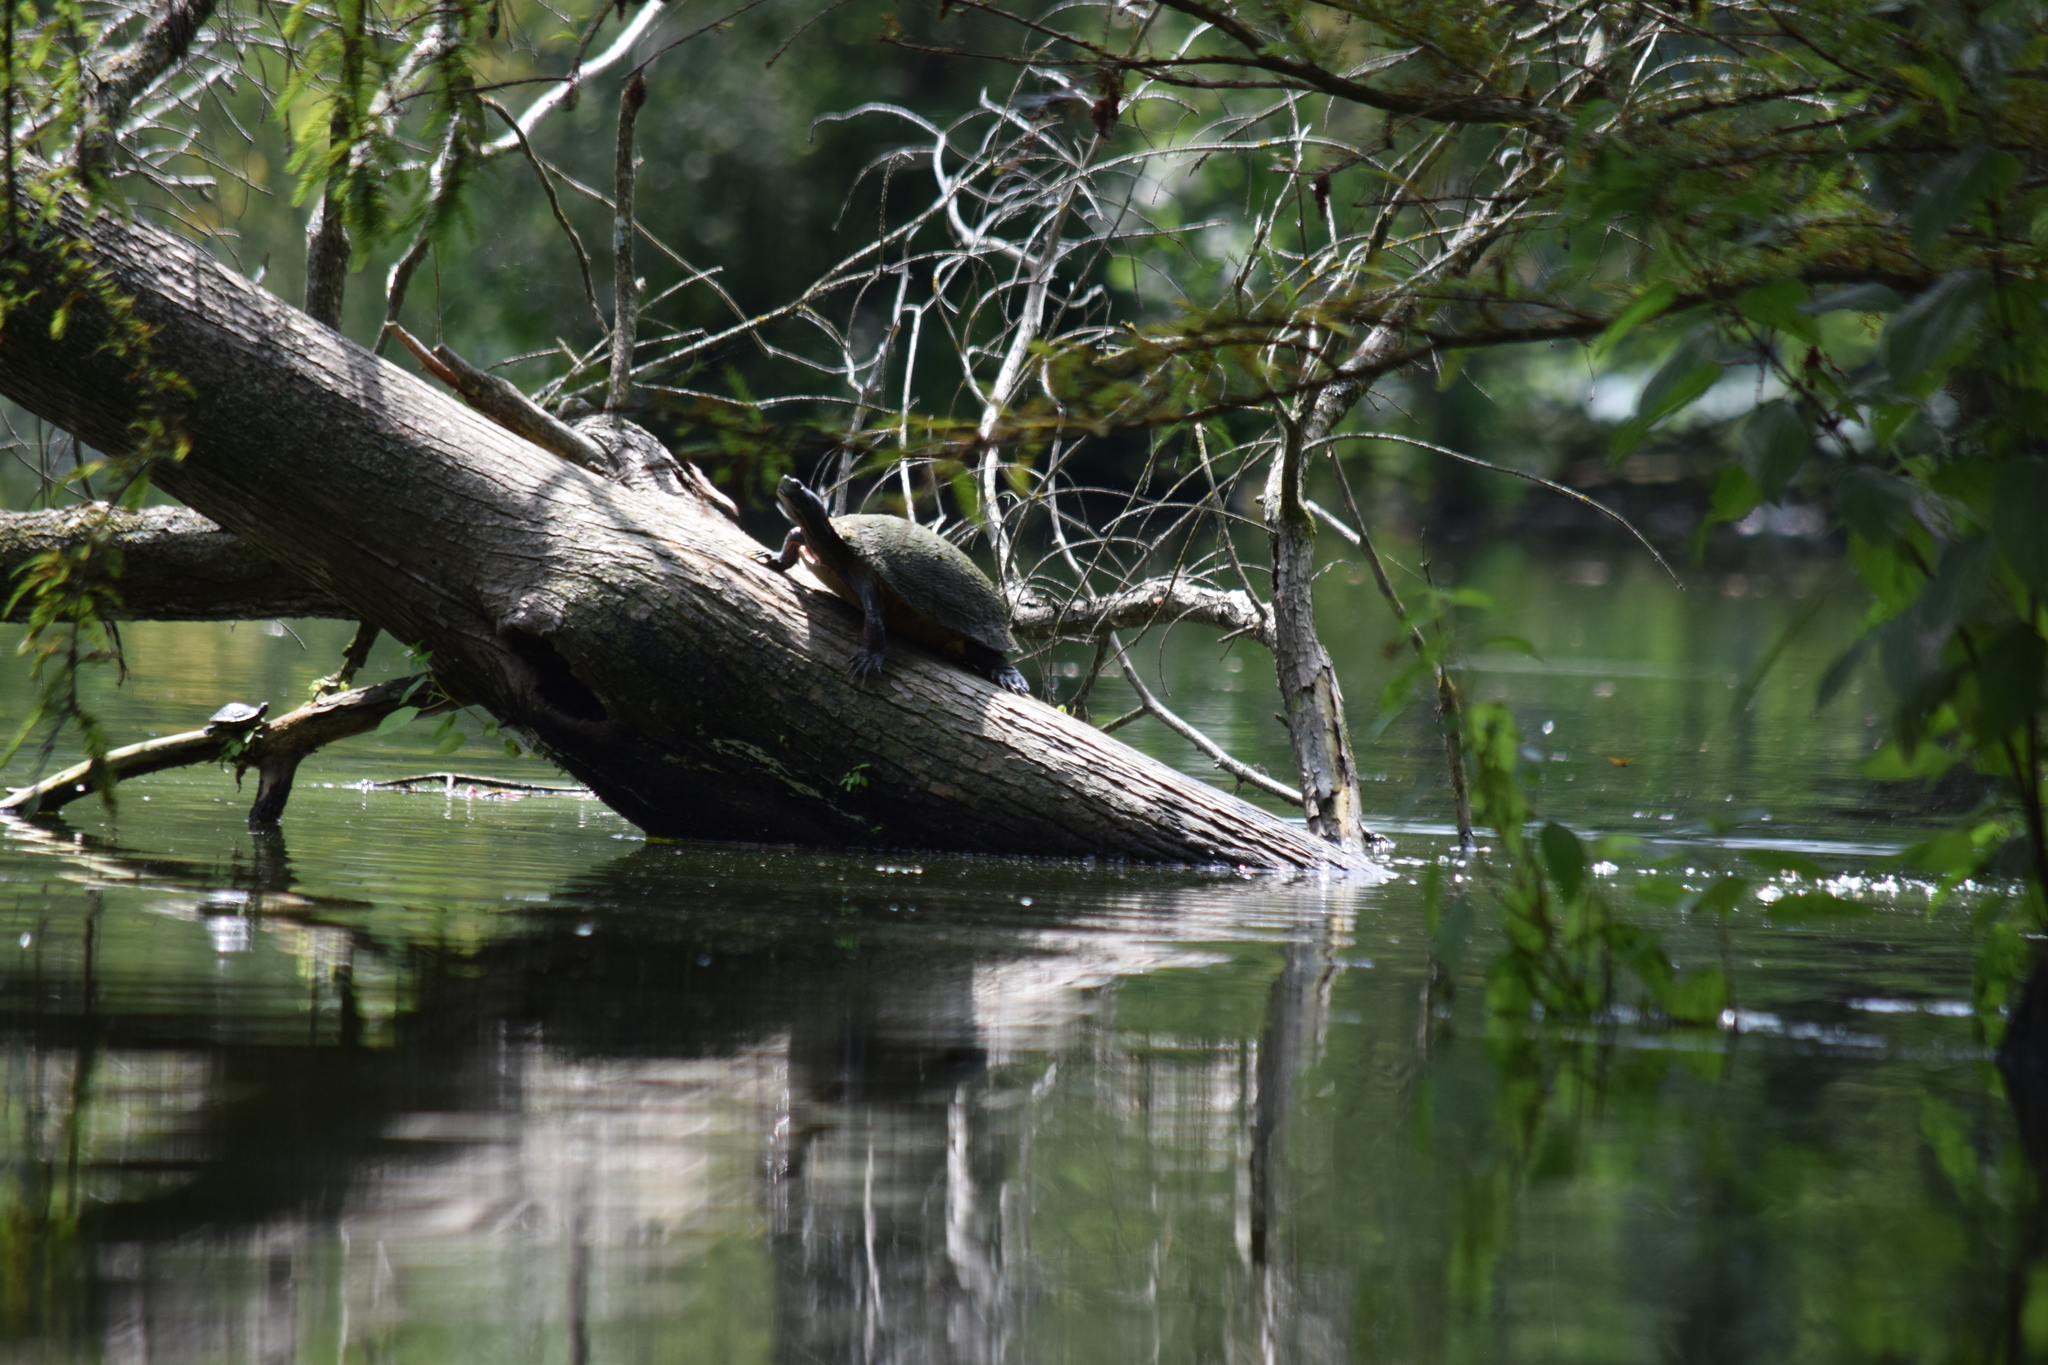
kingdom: Animalia
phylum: Chordata
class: Testudines
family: Emydidae
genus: Pseudemys
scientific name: Pseudemys rubriventris
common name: American red-bellied turtle
